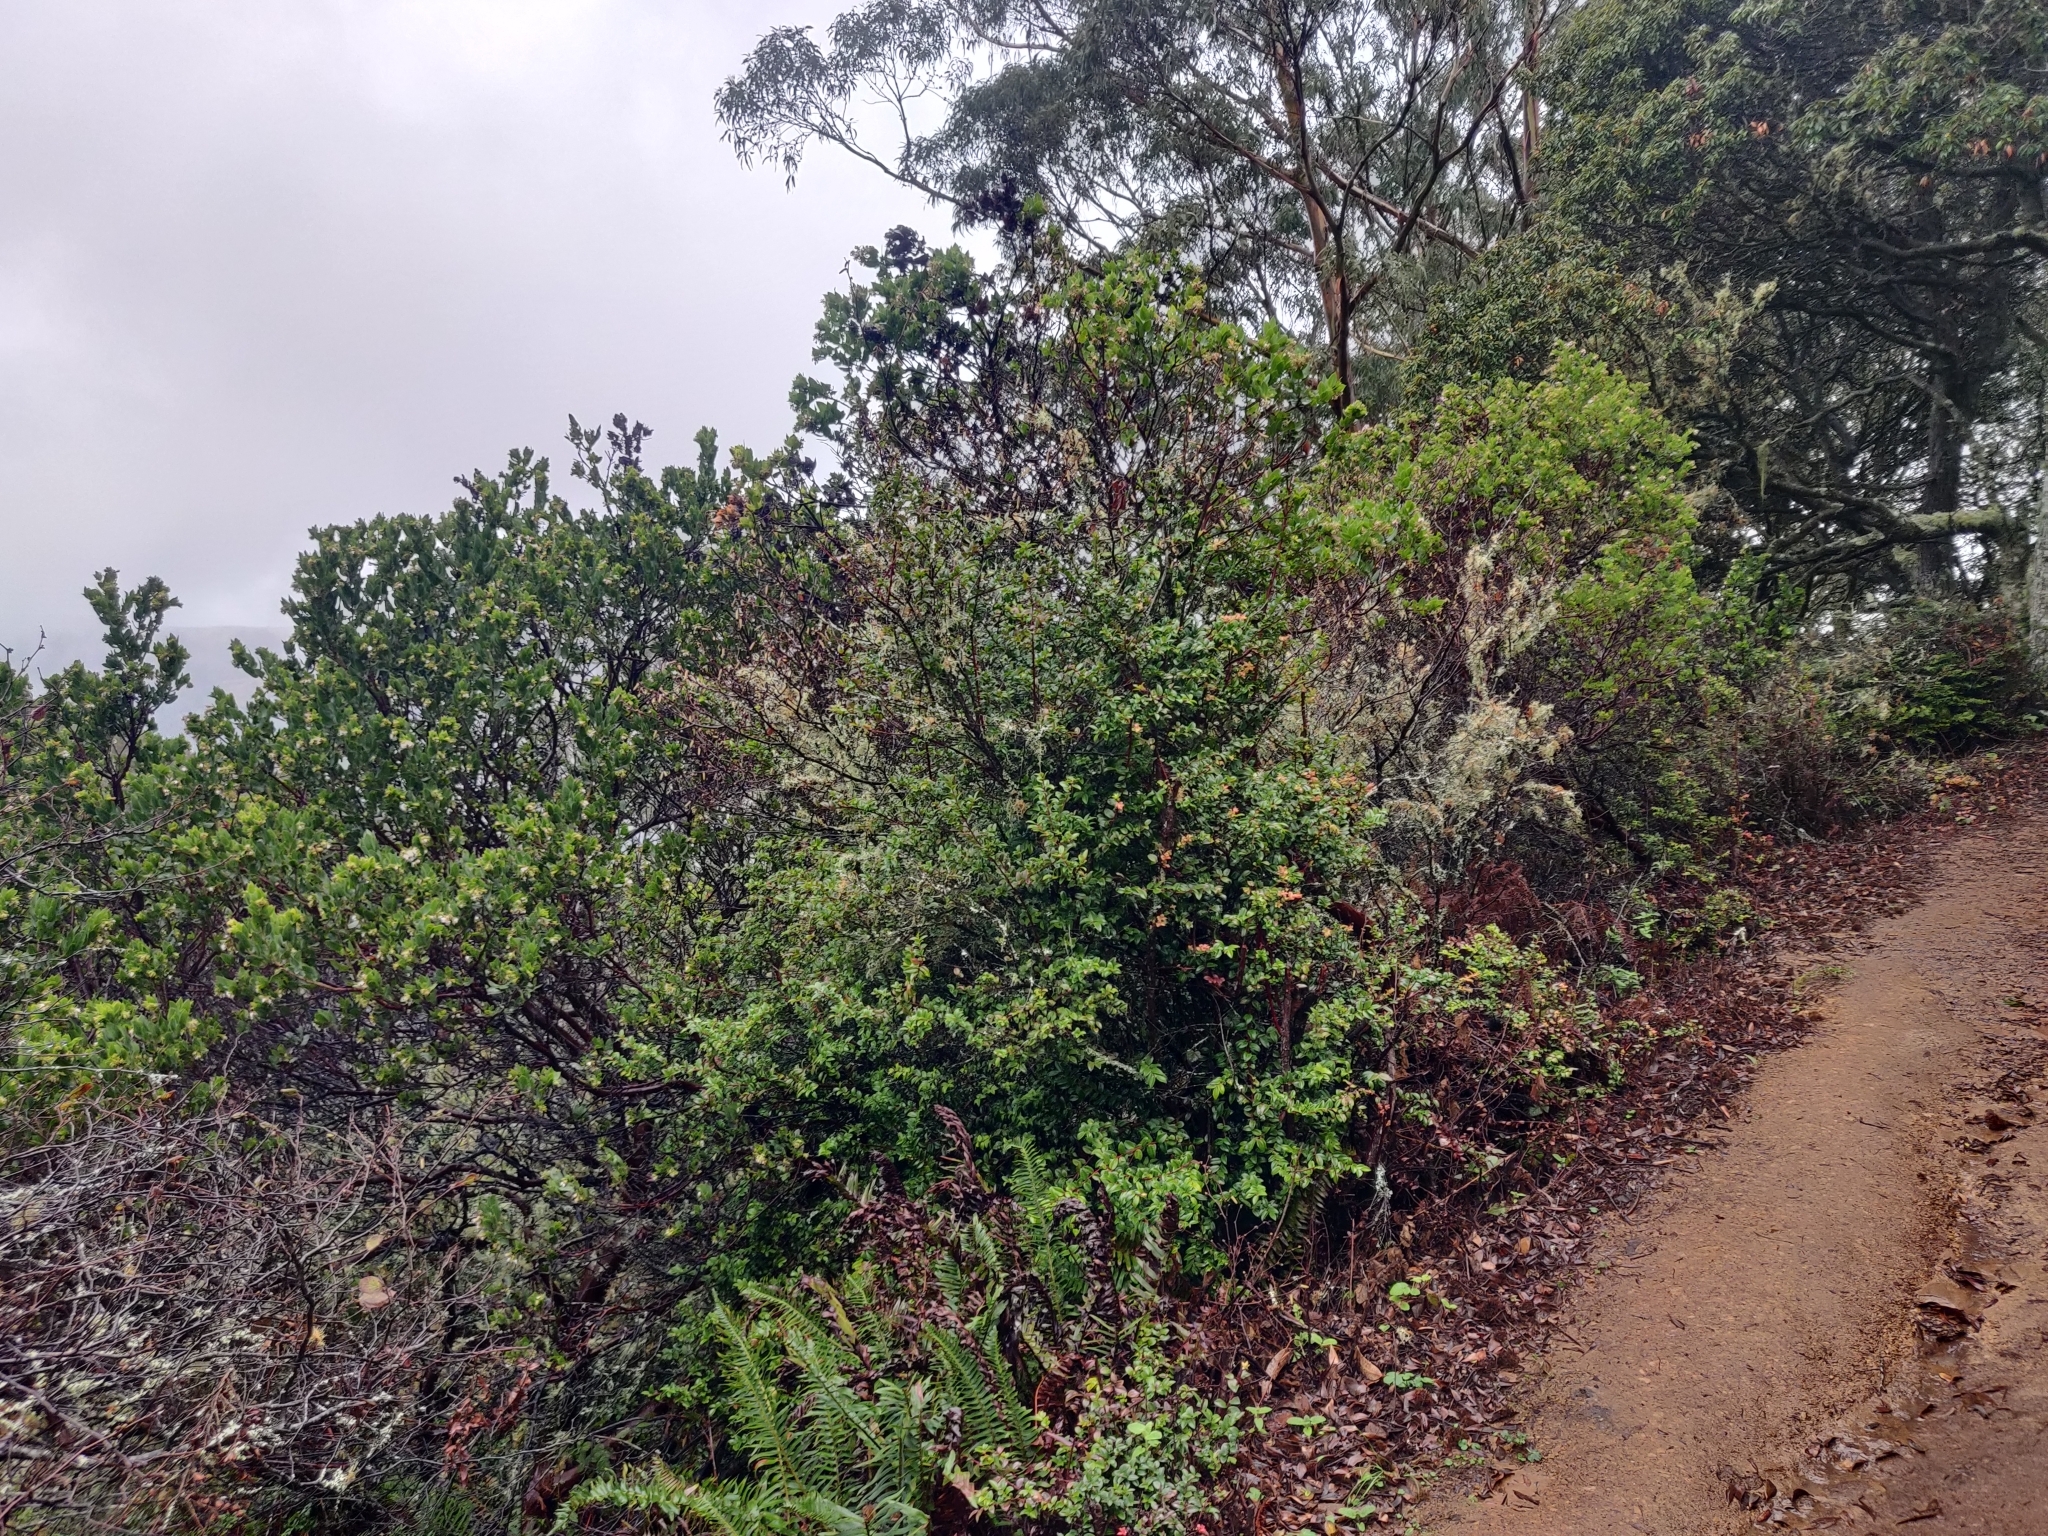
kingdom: Plantae
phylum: Tracheophyta
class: Magnoliopsida
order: Ericales
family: Ericaceae
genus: Vaccinium
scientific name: Vaccinium ovatum
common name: California-huckleberry
